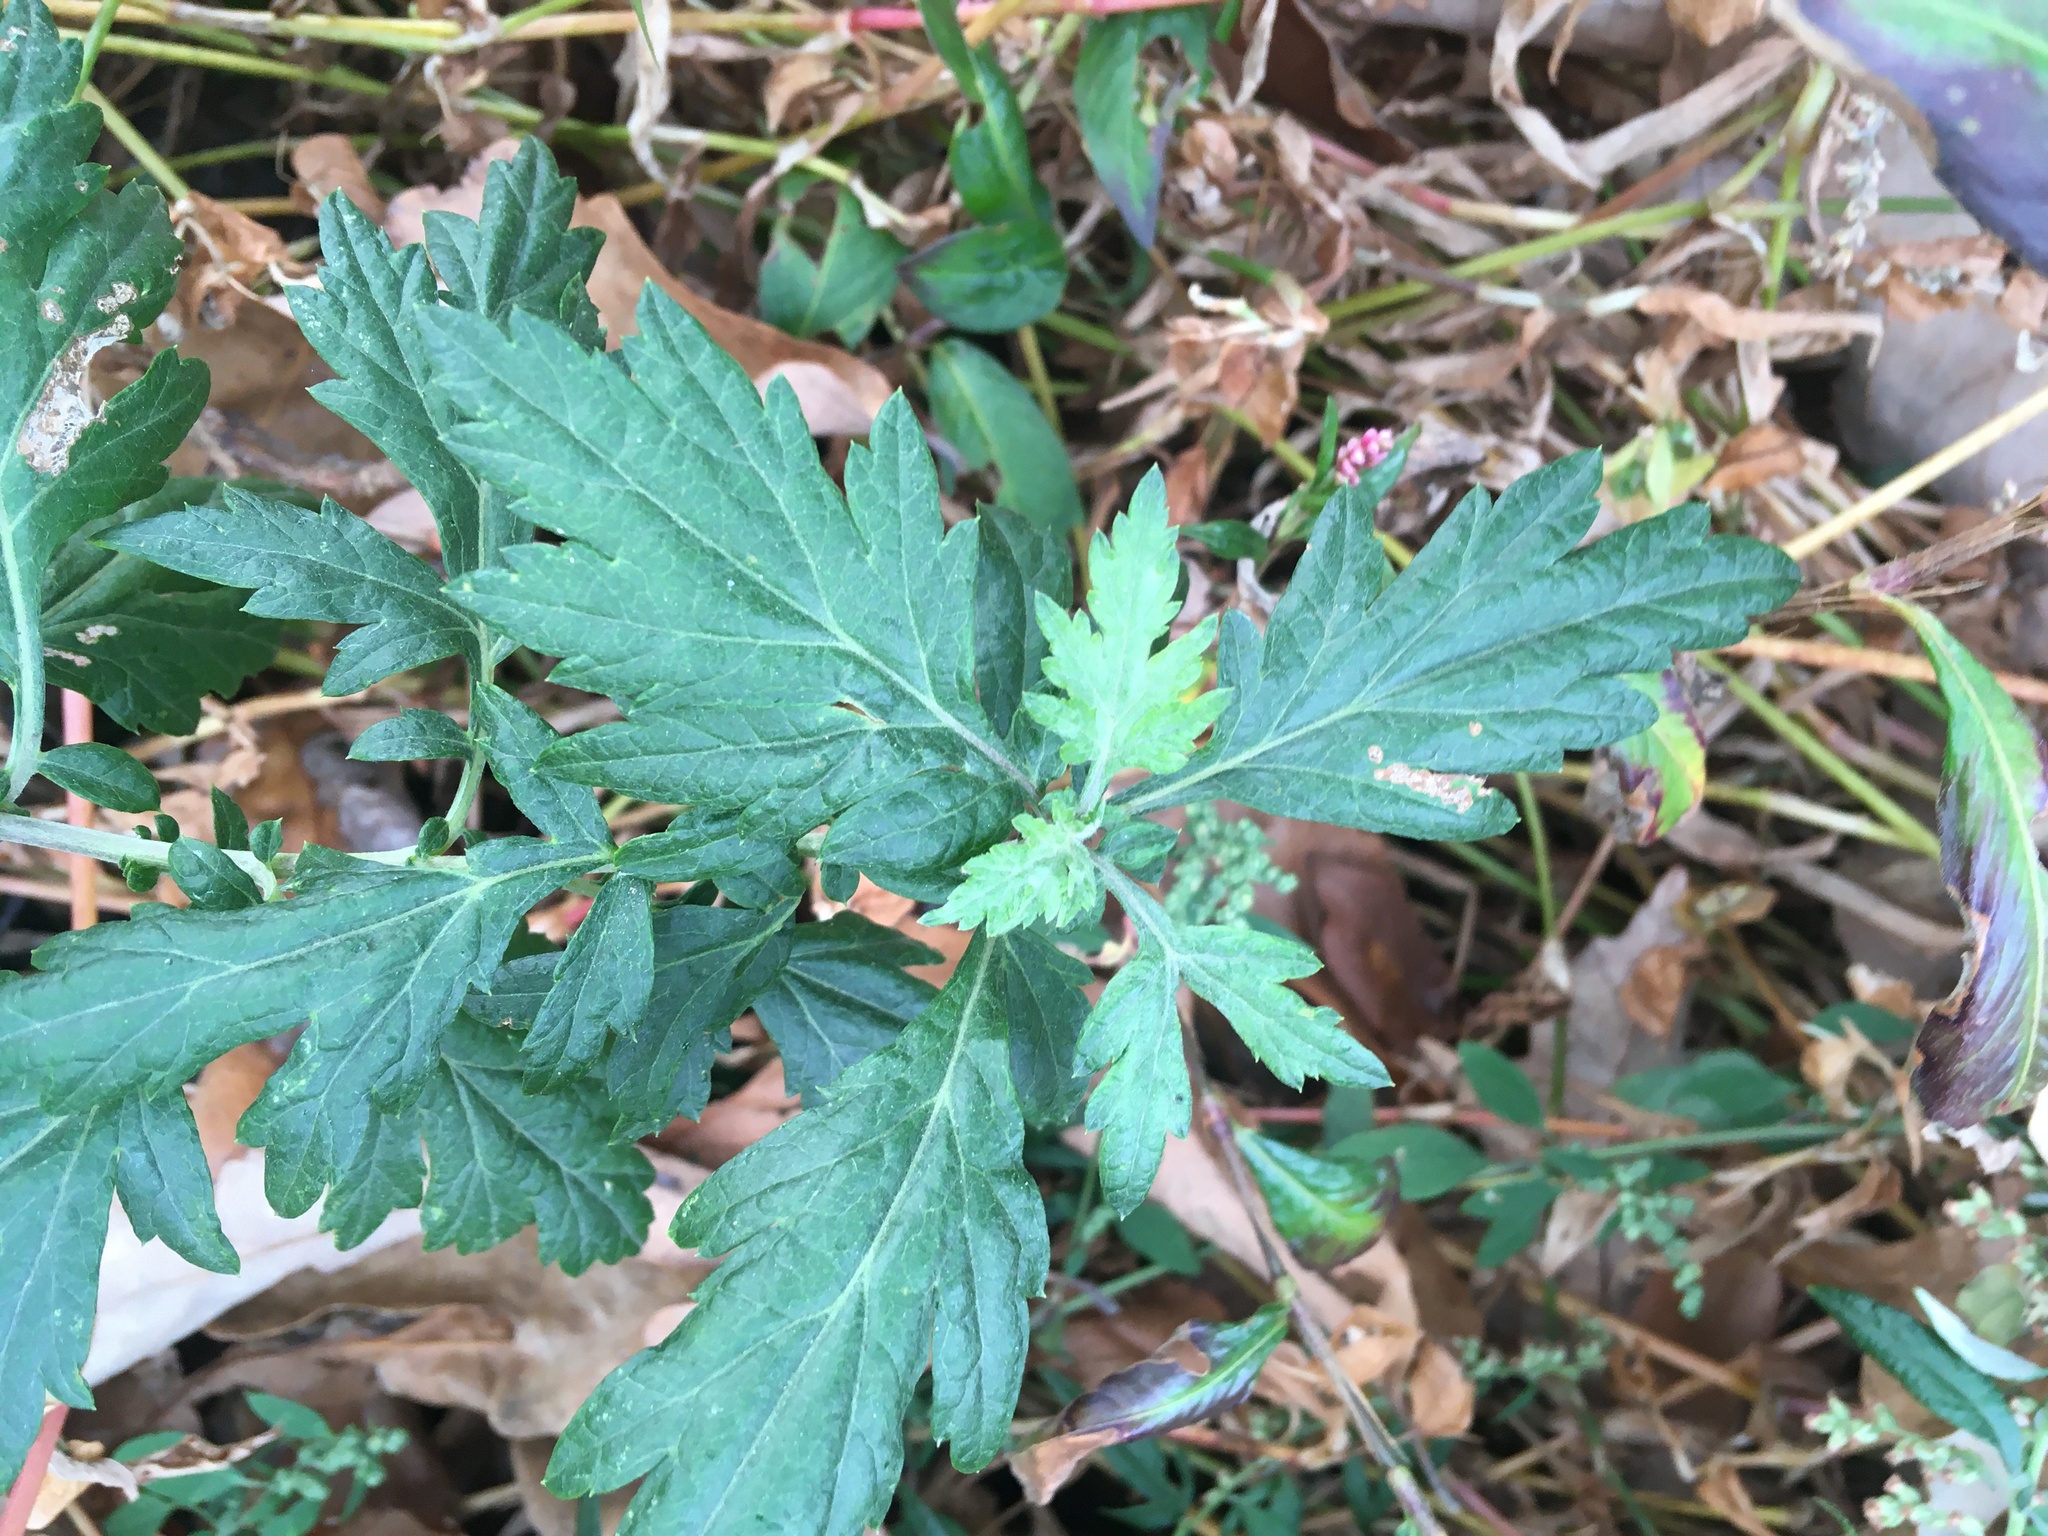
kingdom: Plantae
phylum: Tracheophyta
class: Magnoliopsida
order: Asterales
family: Asteraceae
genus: Artemisia
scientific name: Artemisia vulgaris
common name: Mugwort
